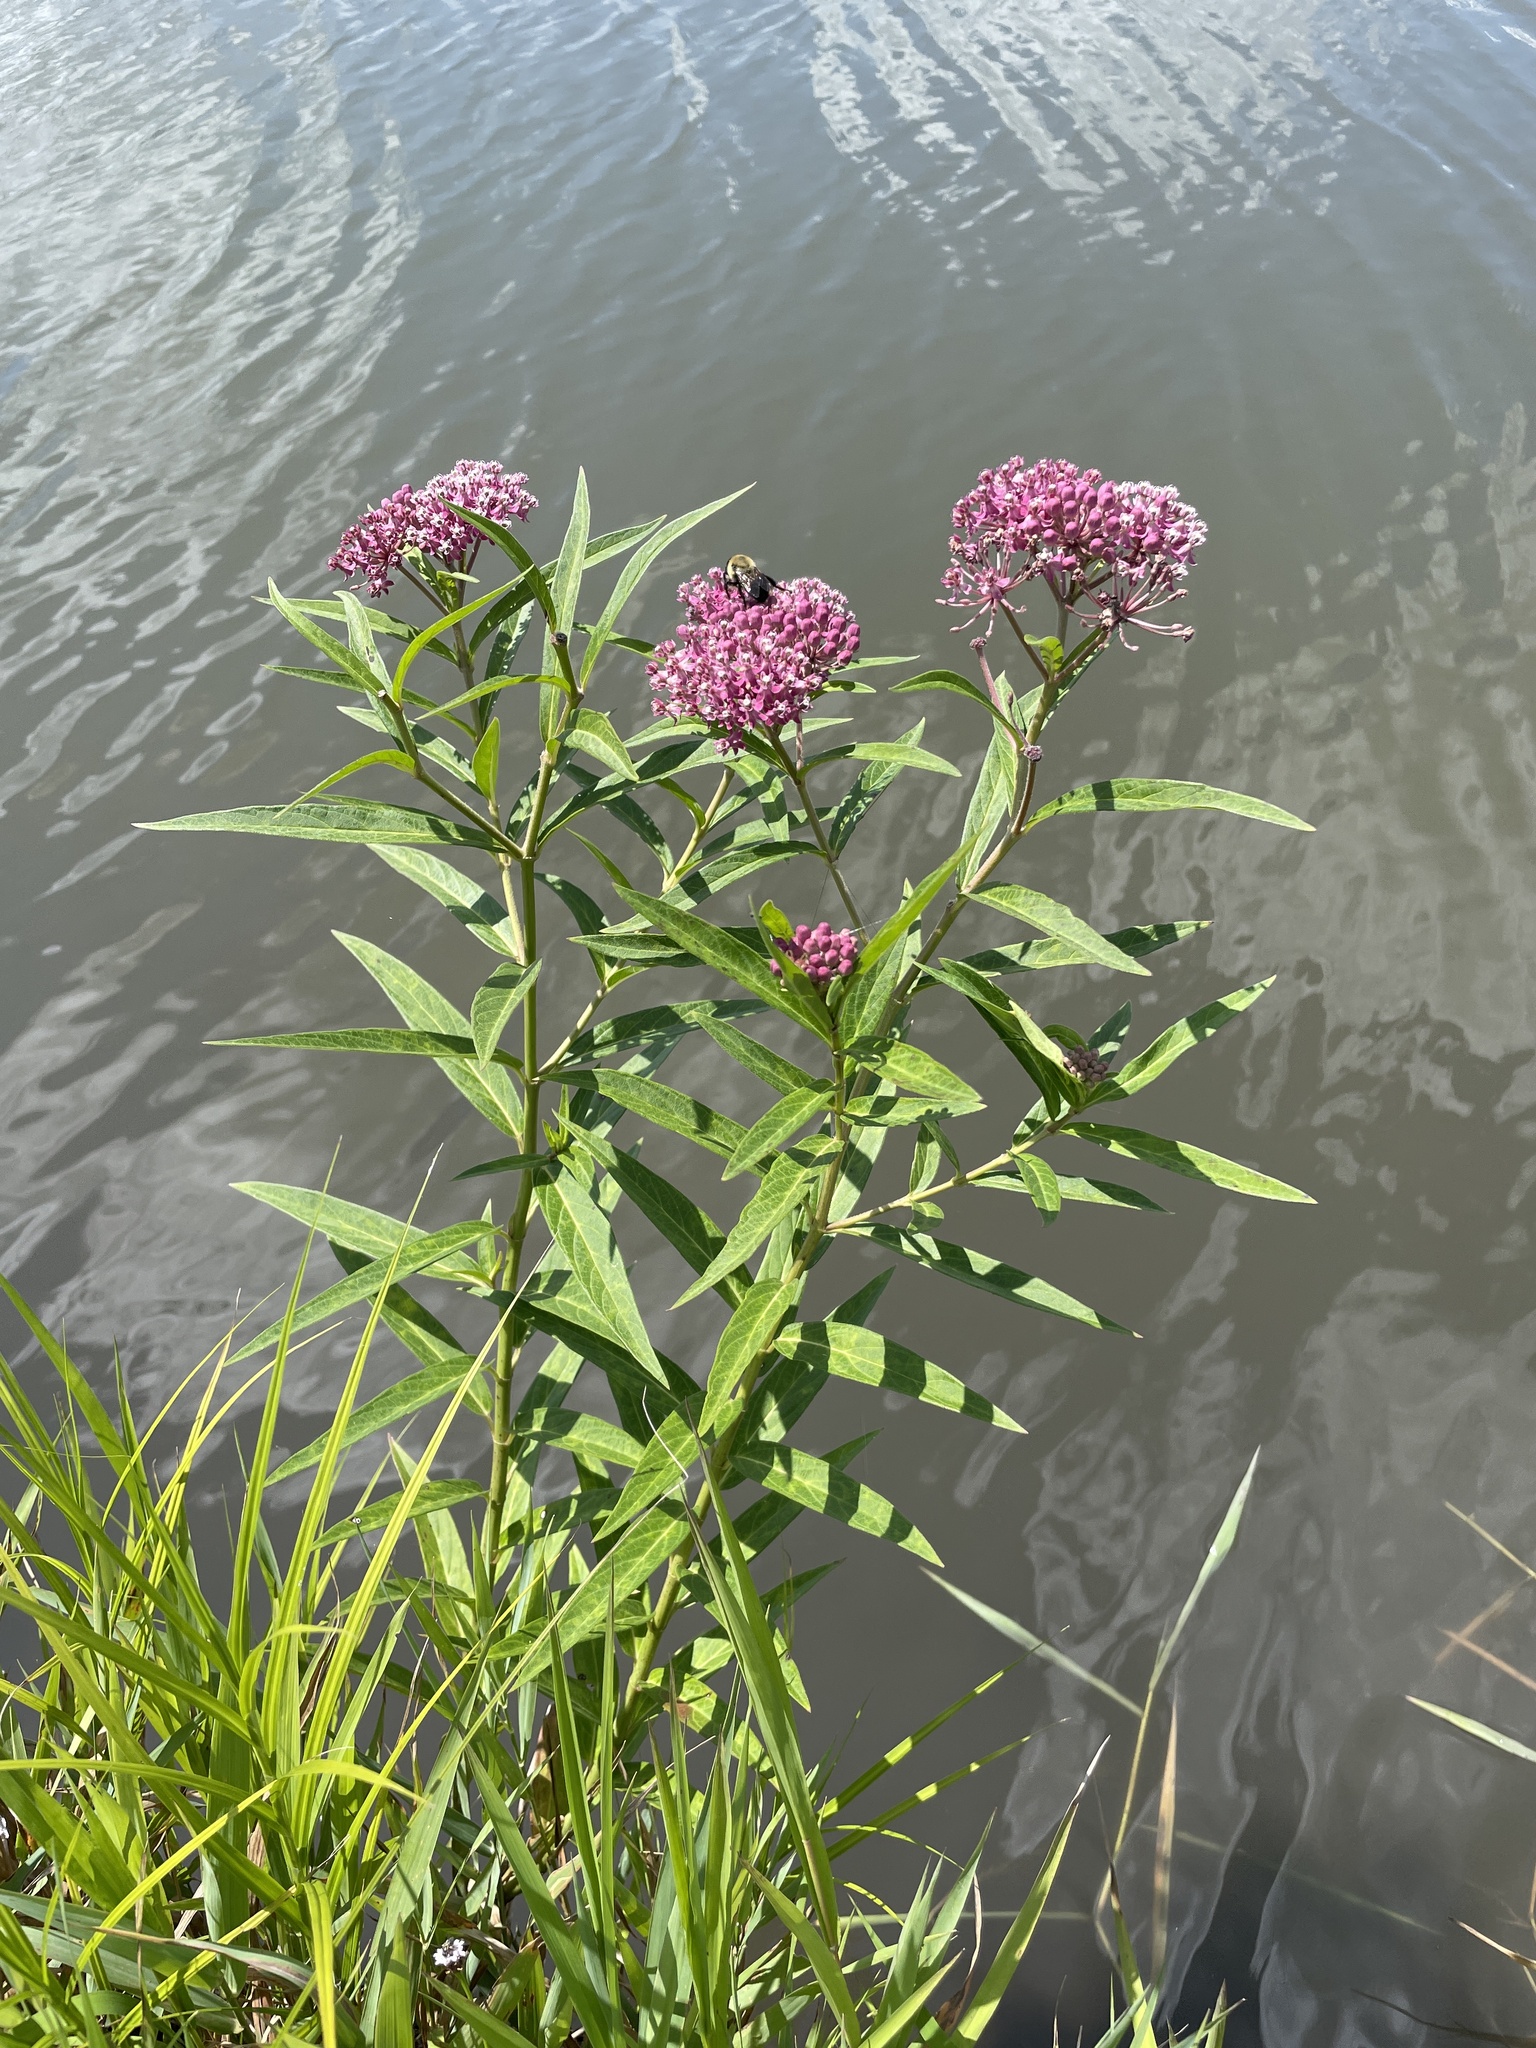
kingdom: Plantae
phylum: Tracheophyta
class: Magnoliopsida
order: Gentianales
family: Apocynaceae
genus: Asclepias
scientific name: Asclepias incarnata
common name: Swamp milkweed
